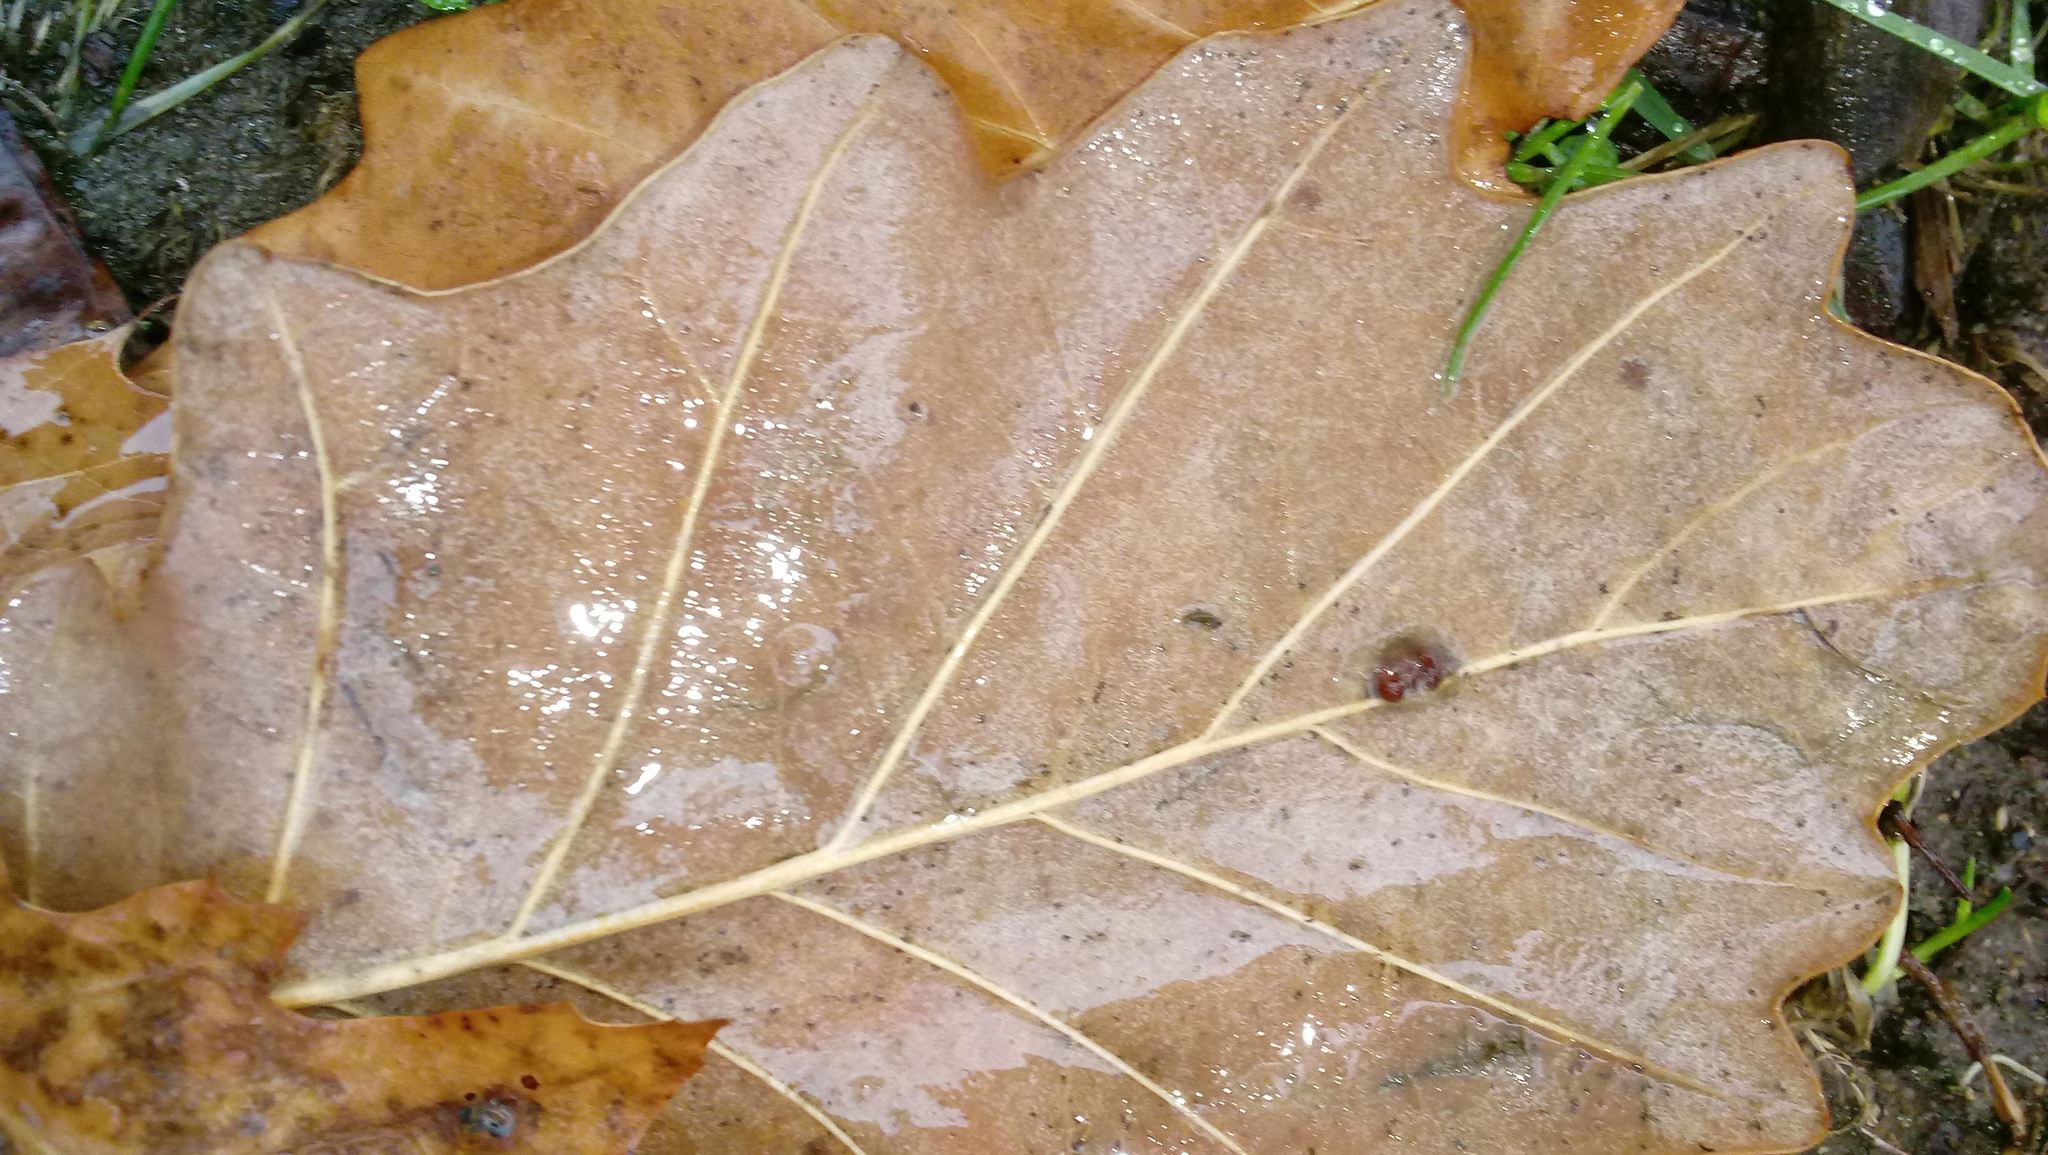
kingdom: Animalia
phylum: Arthropoda
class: Insecta
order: Hymenoptera
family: Cynipidae
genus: Andricus
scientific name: Andricus Druon ignotum
